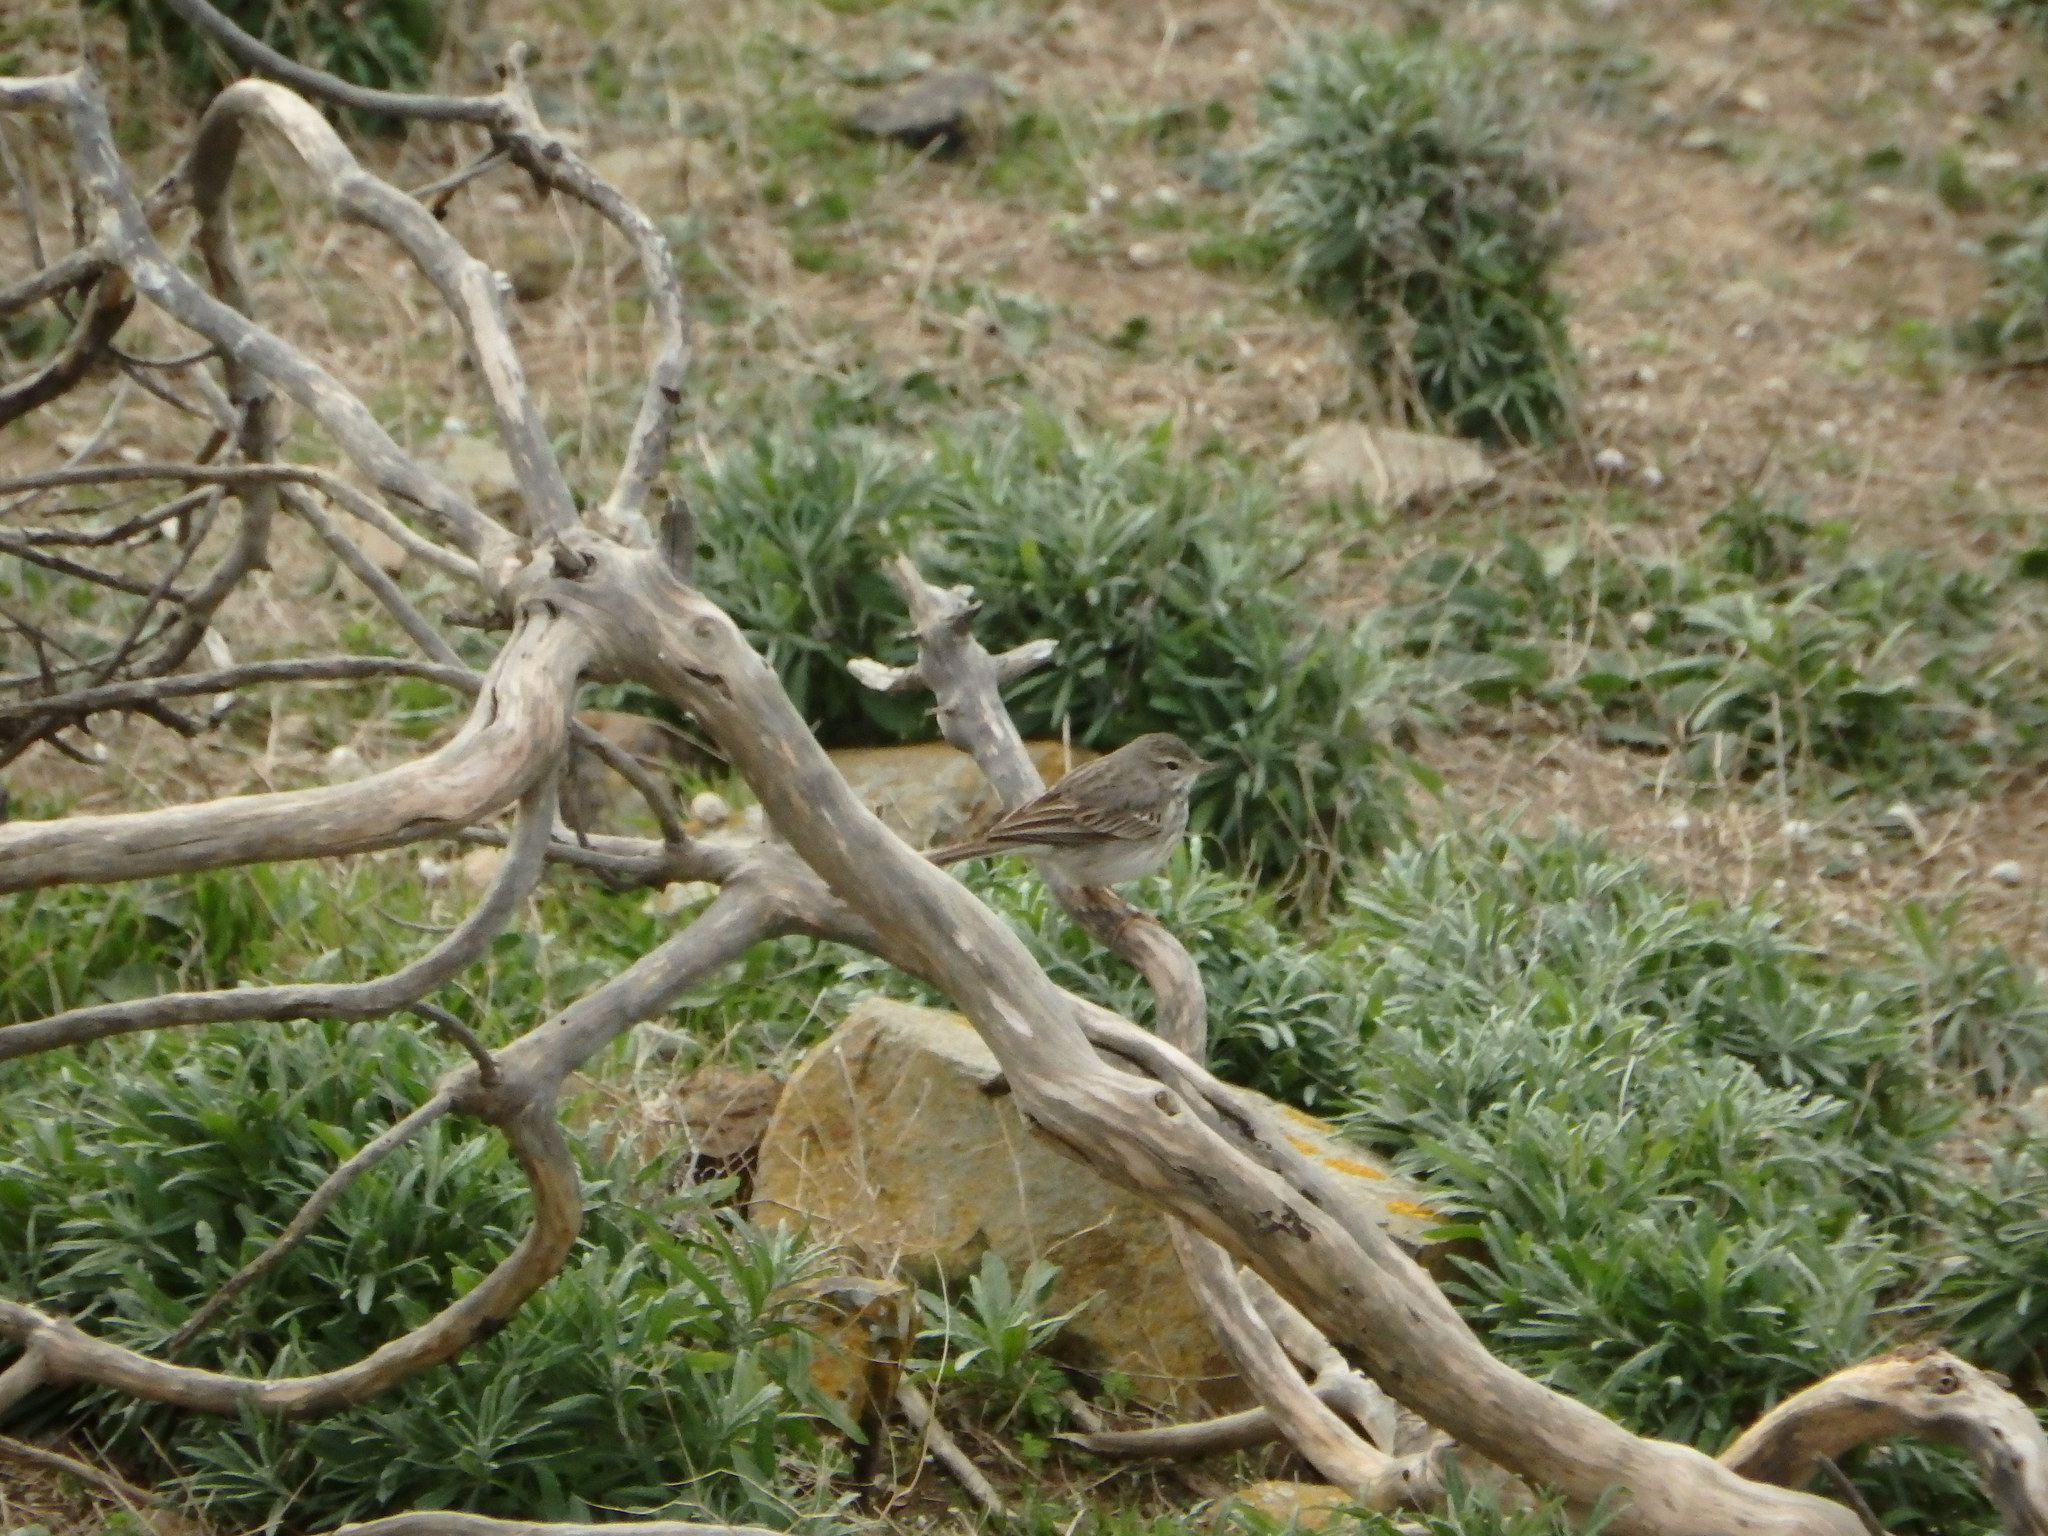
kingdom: Animalia
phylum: Chordata
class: Aves
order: Passeriformes
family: Motacillidae
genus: Anthus
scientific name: Anthus berthelotii
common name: Berthelot's pipit
